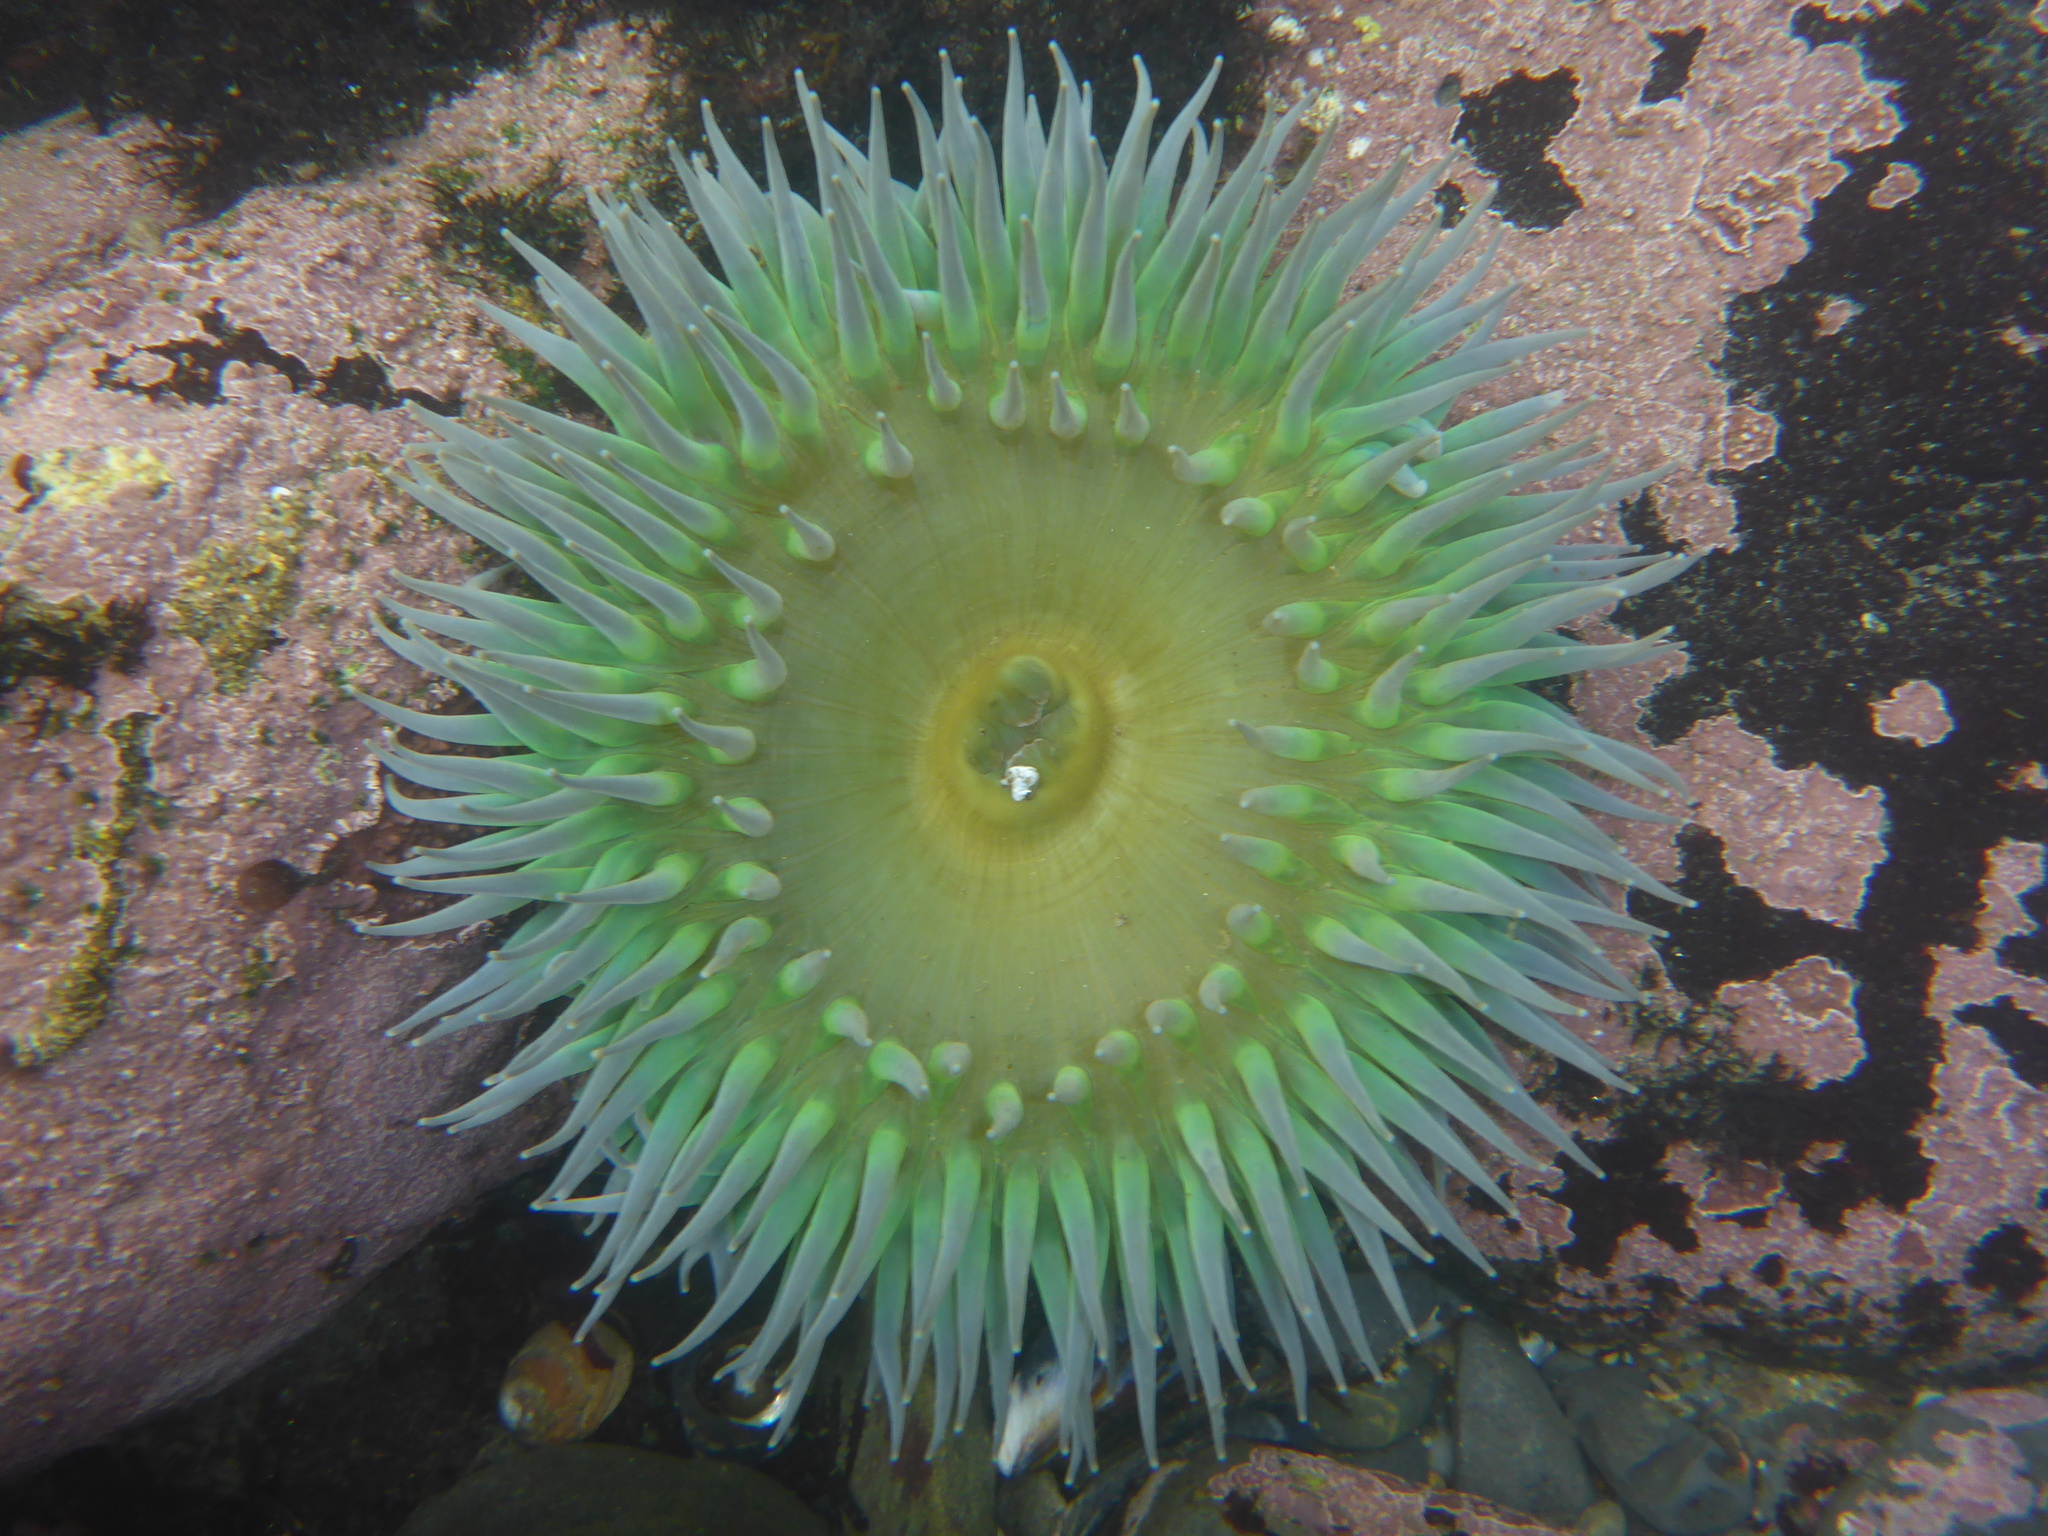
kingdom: Animalia
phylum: Cnidaria
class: Anthozoa
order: Actiniaria
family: Actiniidae
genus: Anthopleura
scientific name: Anthopleura xanthogrammica
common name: Giant green anemone
